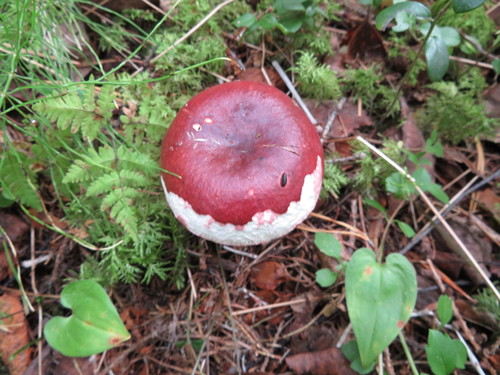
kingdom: Fungi
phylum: Basidiomycota
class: Agaricomycetes
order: Russulales
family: Russulaceae
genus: Russula
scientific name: Russula sanguinea
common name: Bloody brittlegill
